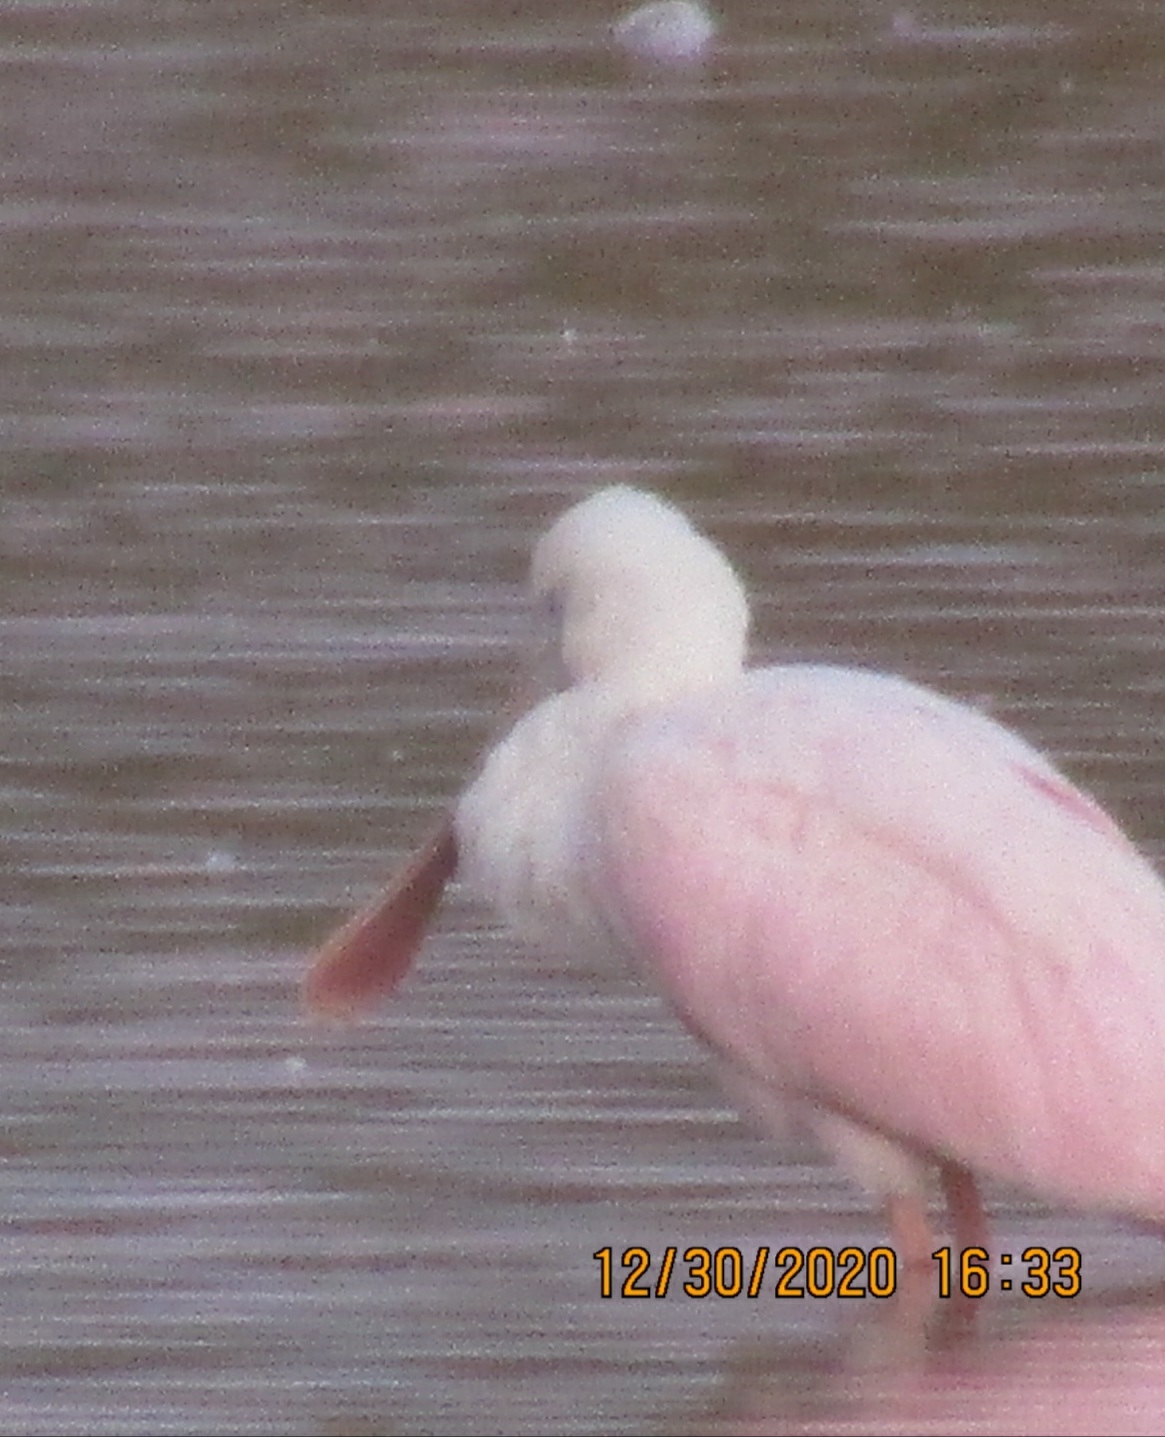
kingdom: Animalia
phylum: Chordata
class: Aves
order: Pelecaniformes
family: Threskiornithidae
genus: Platalea
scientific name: Platalea ajaja
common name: Roseate spoonbill
